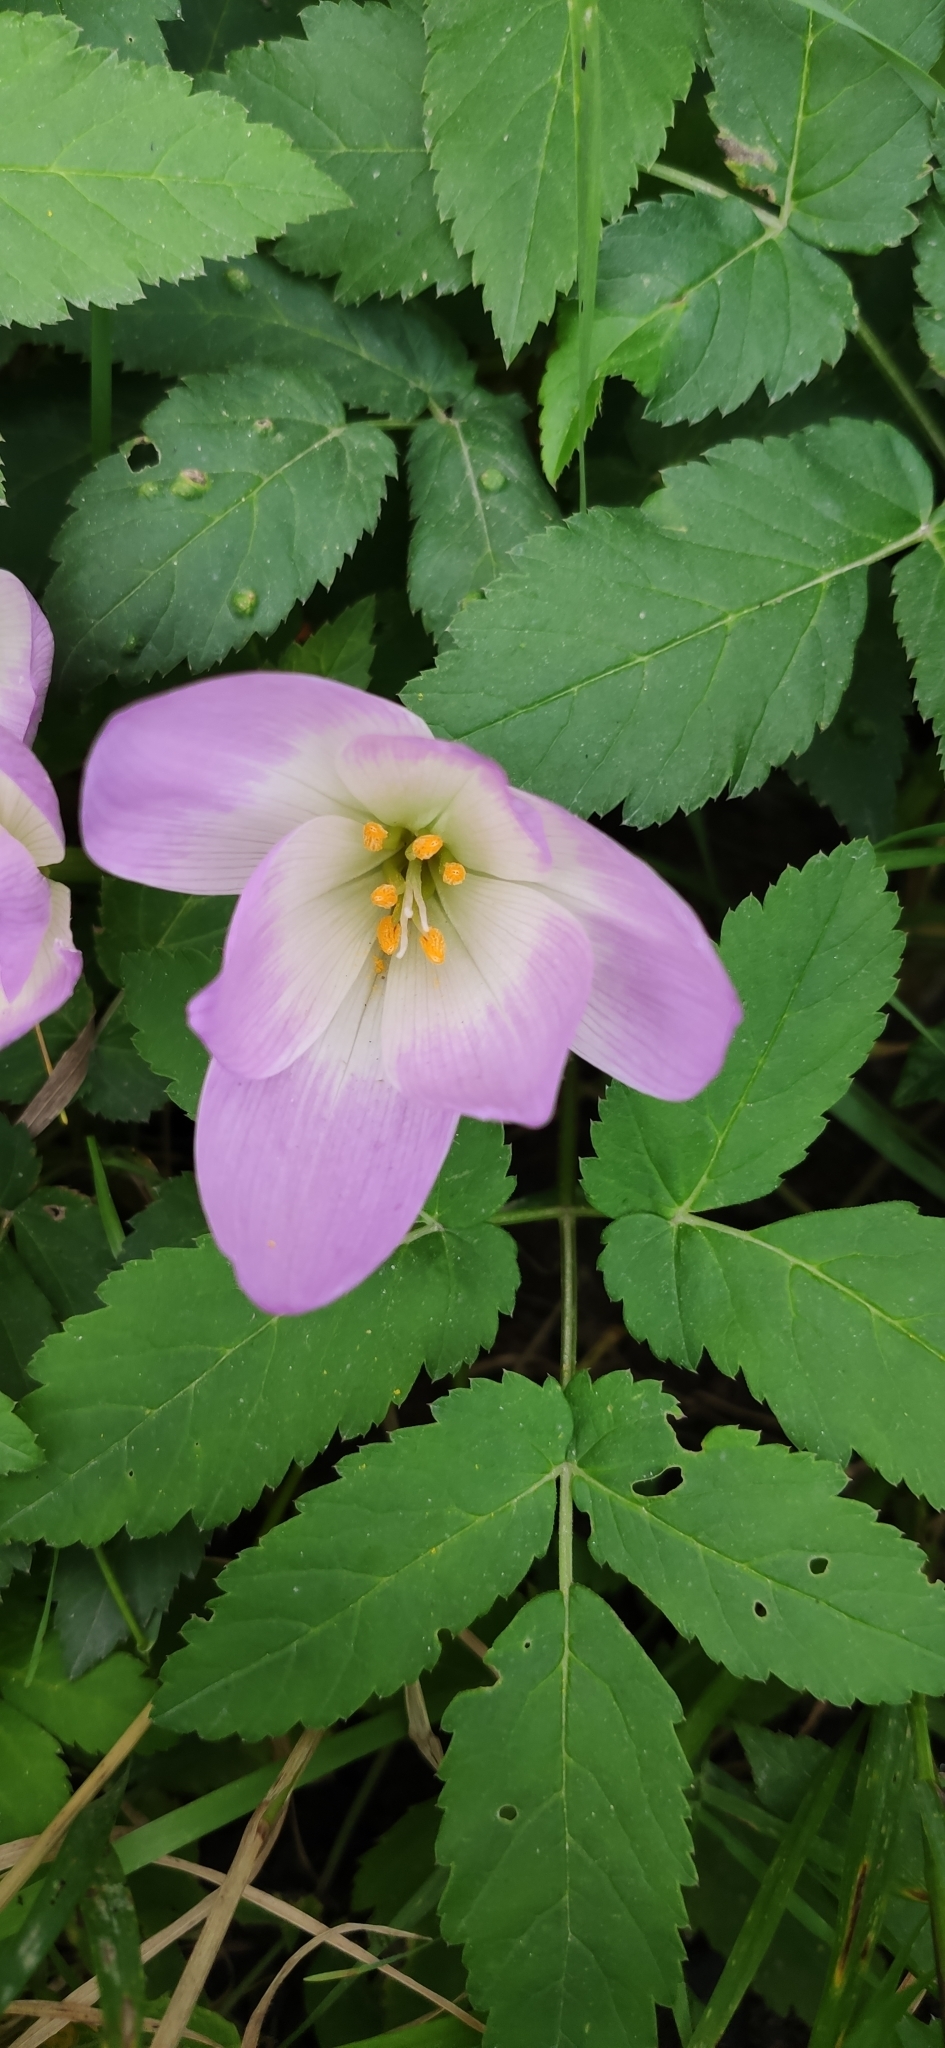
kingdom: Plantae
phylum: Tracheophyta
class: Liliopsida
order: Liliales
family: Colchicaceae
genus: Colchicum
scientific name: Colchicum speciosum
